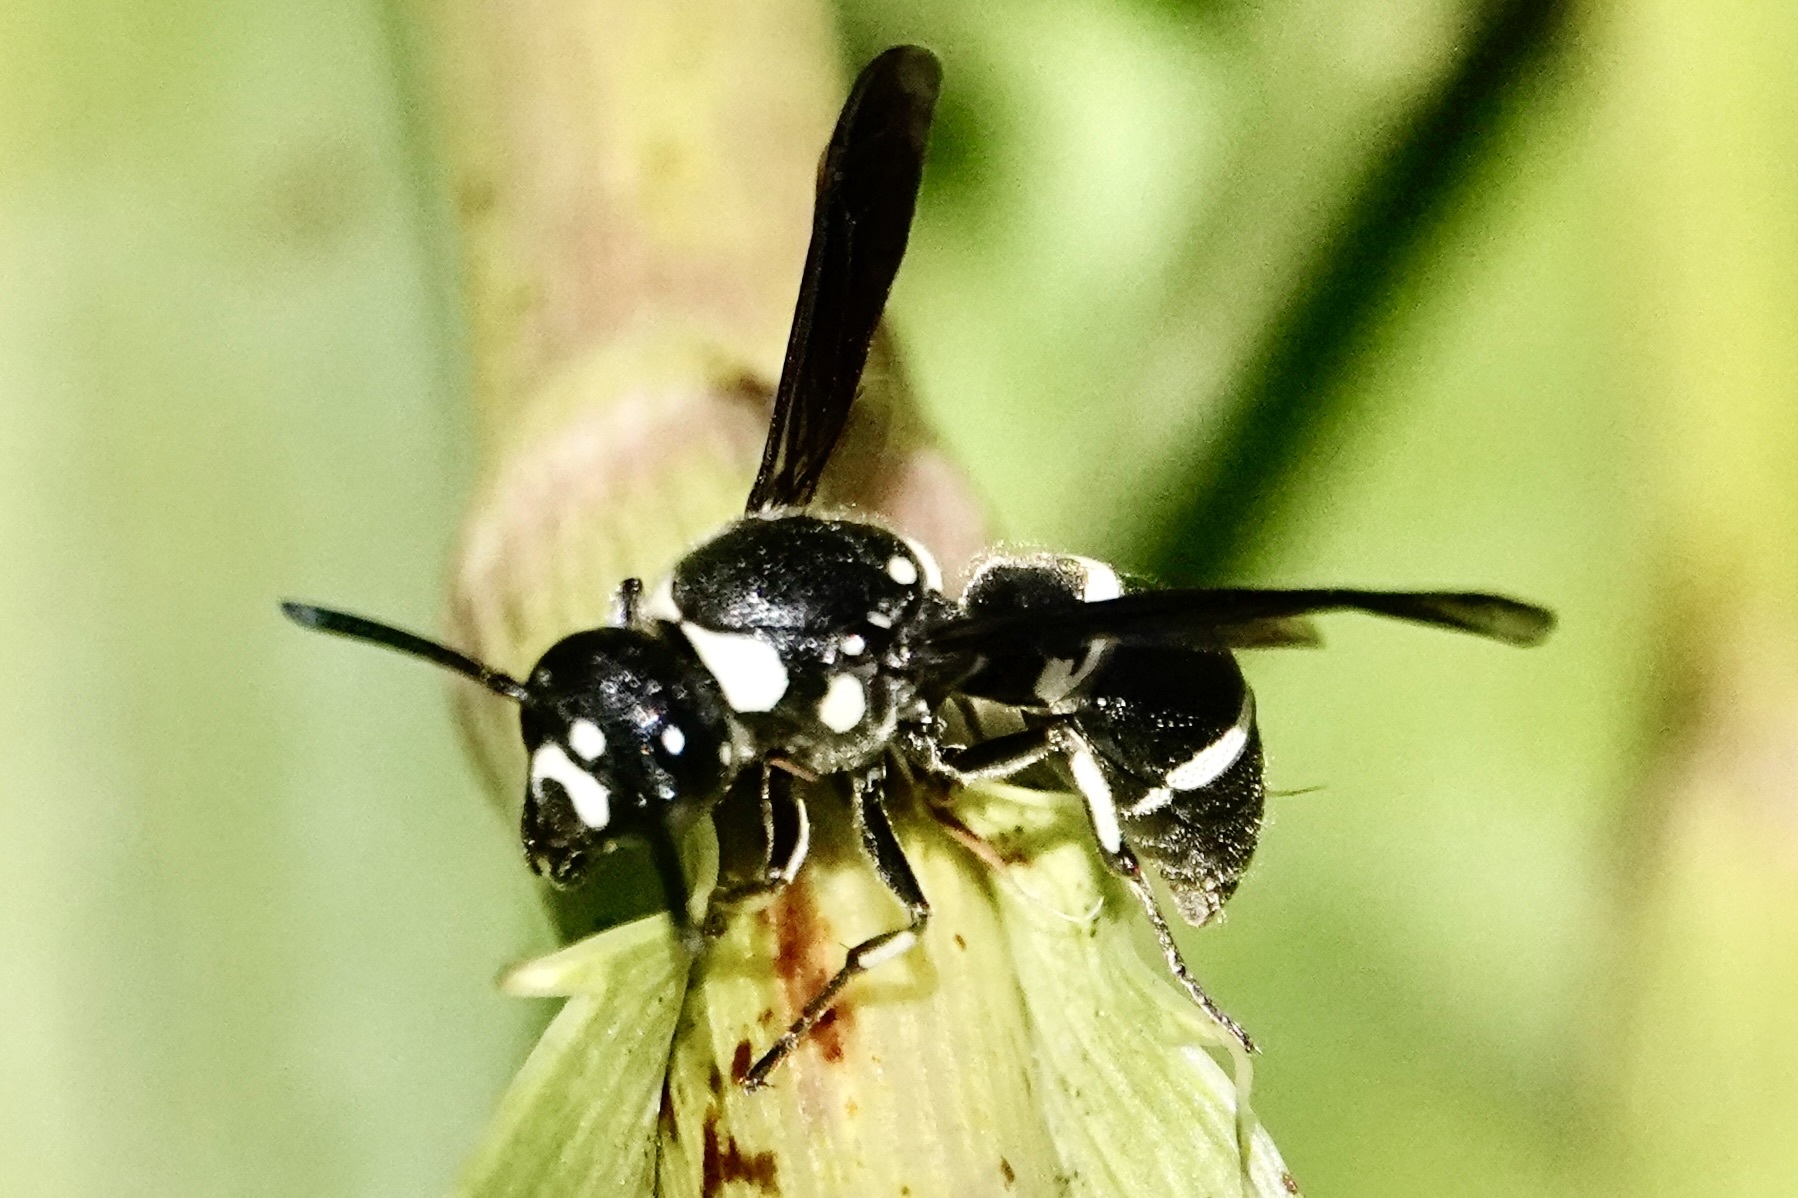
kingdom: Animalia
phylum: Arthropoda
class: Insecta
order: Hymenoptera
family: Eumenidae
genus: Euodynerus
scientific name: Euodynerus schwarzi
